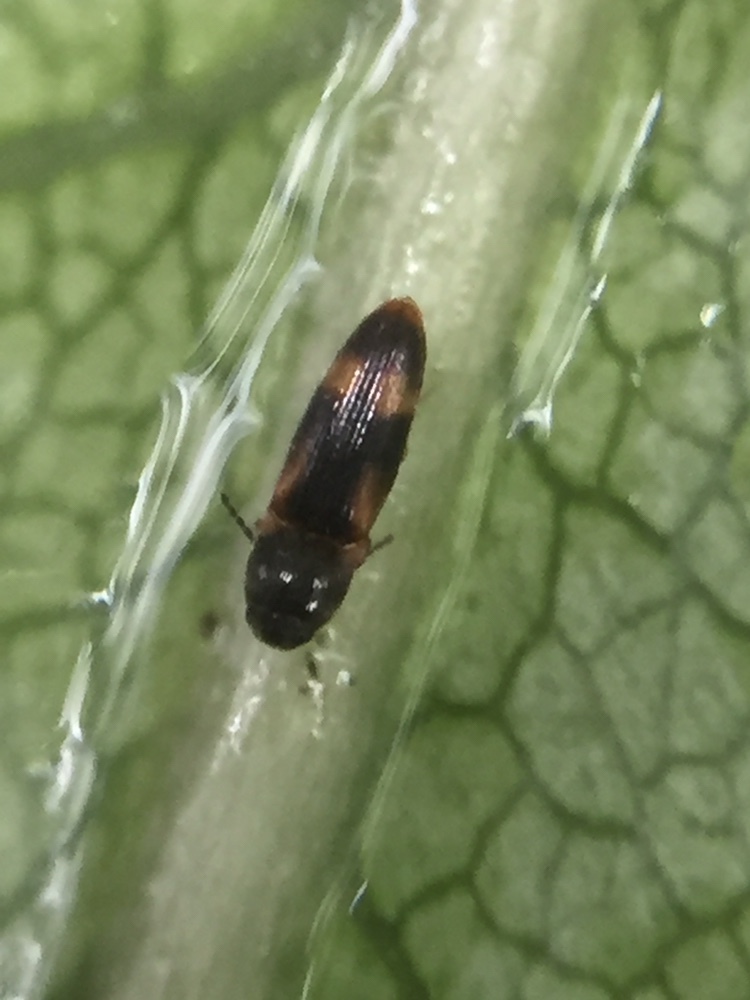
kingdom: Animalia
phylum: Arthropoda
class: Insecta
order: Coleoptera
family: Elateridae
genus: Panspaeus
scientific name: Panspaeus guttatus
